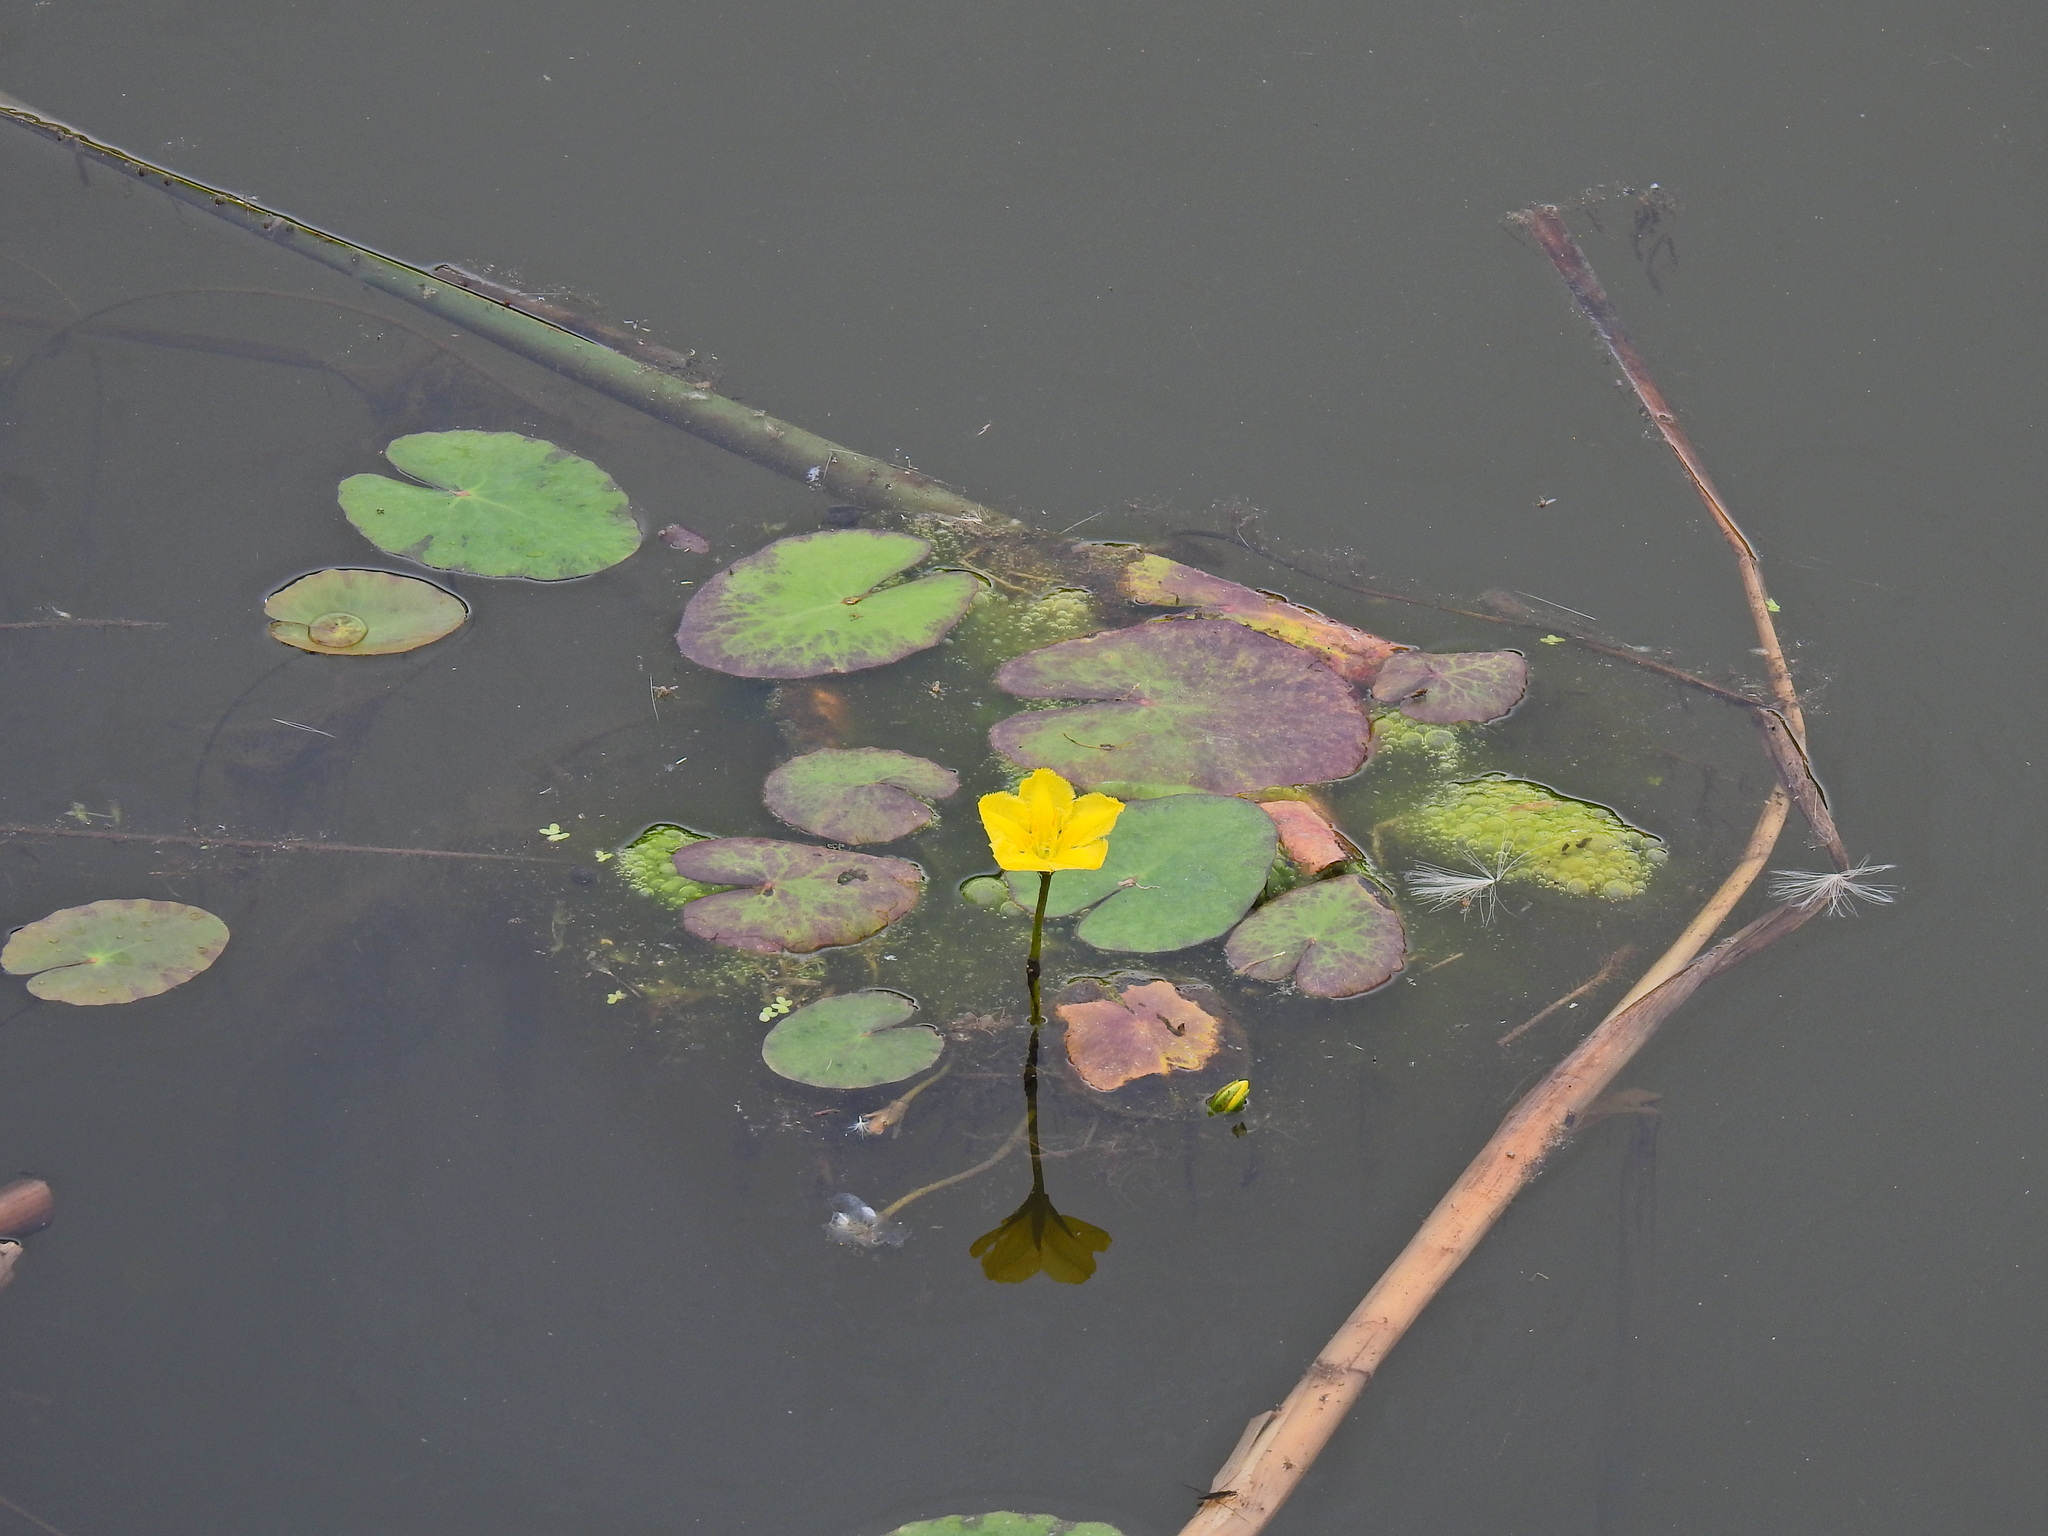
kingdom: Plantae
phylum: Tracheophyta
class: Magnoliopsida
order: Asterales
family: Menyanthaceae
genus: Nymphoides
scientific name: Nymphoides peltata
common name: Fringed water-lily
